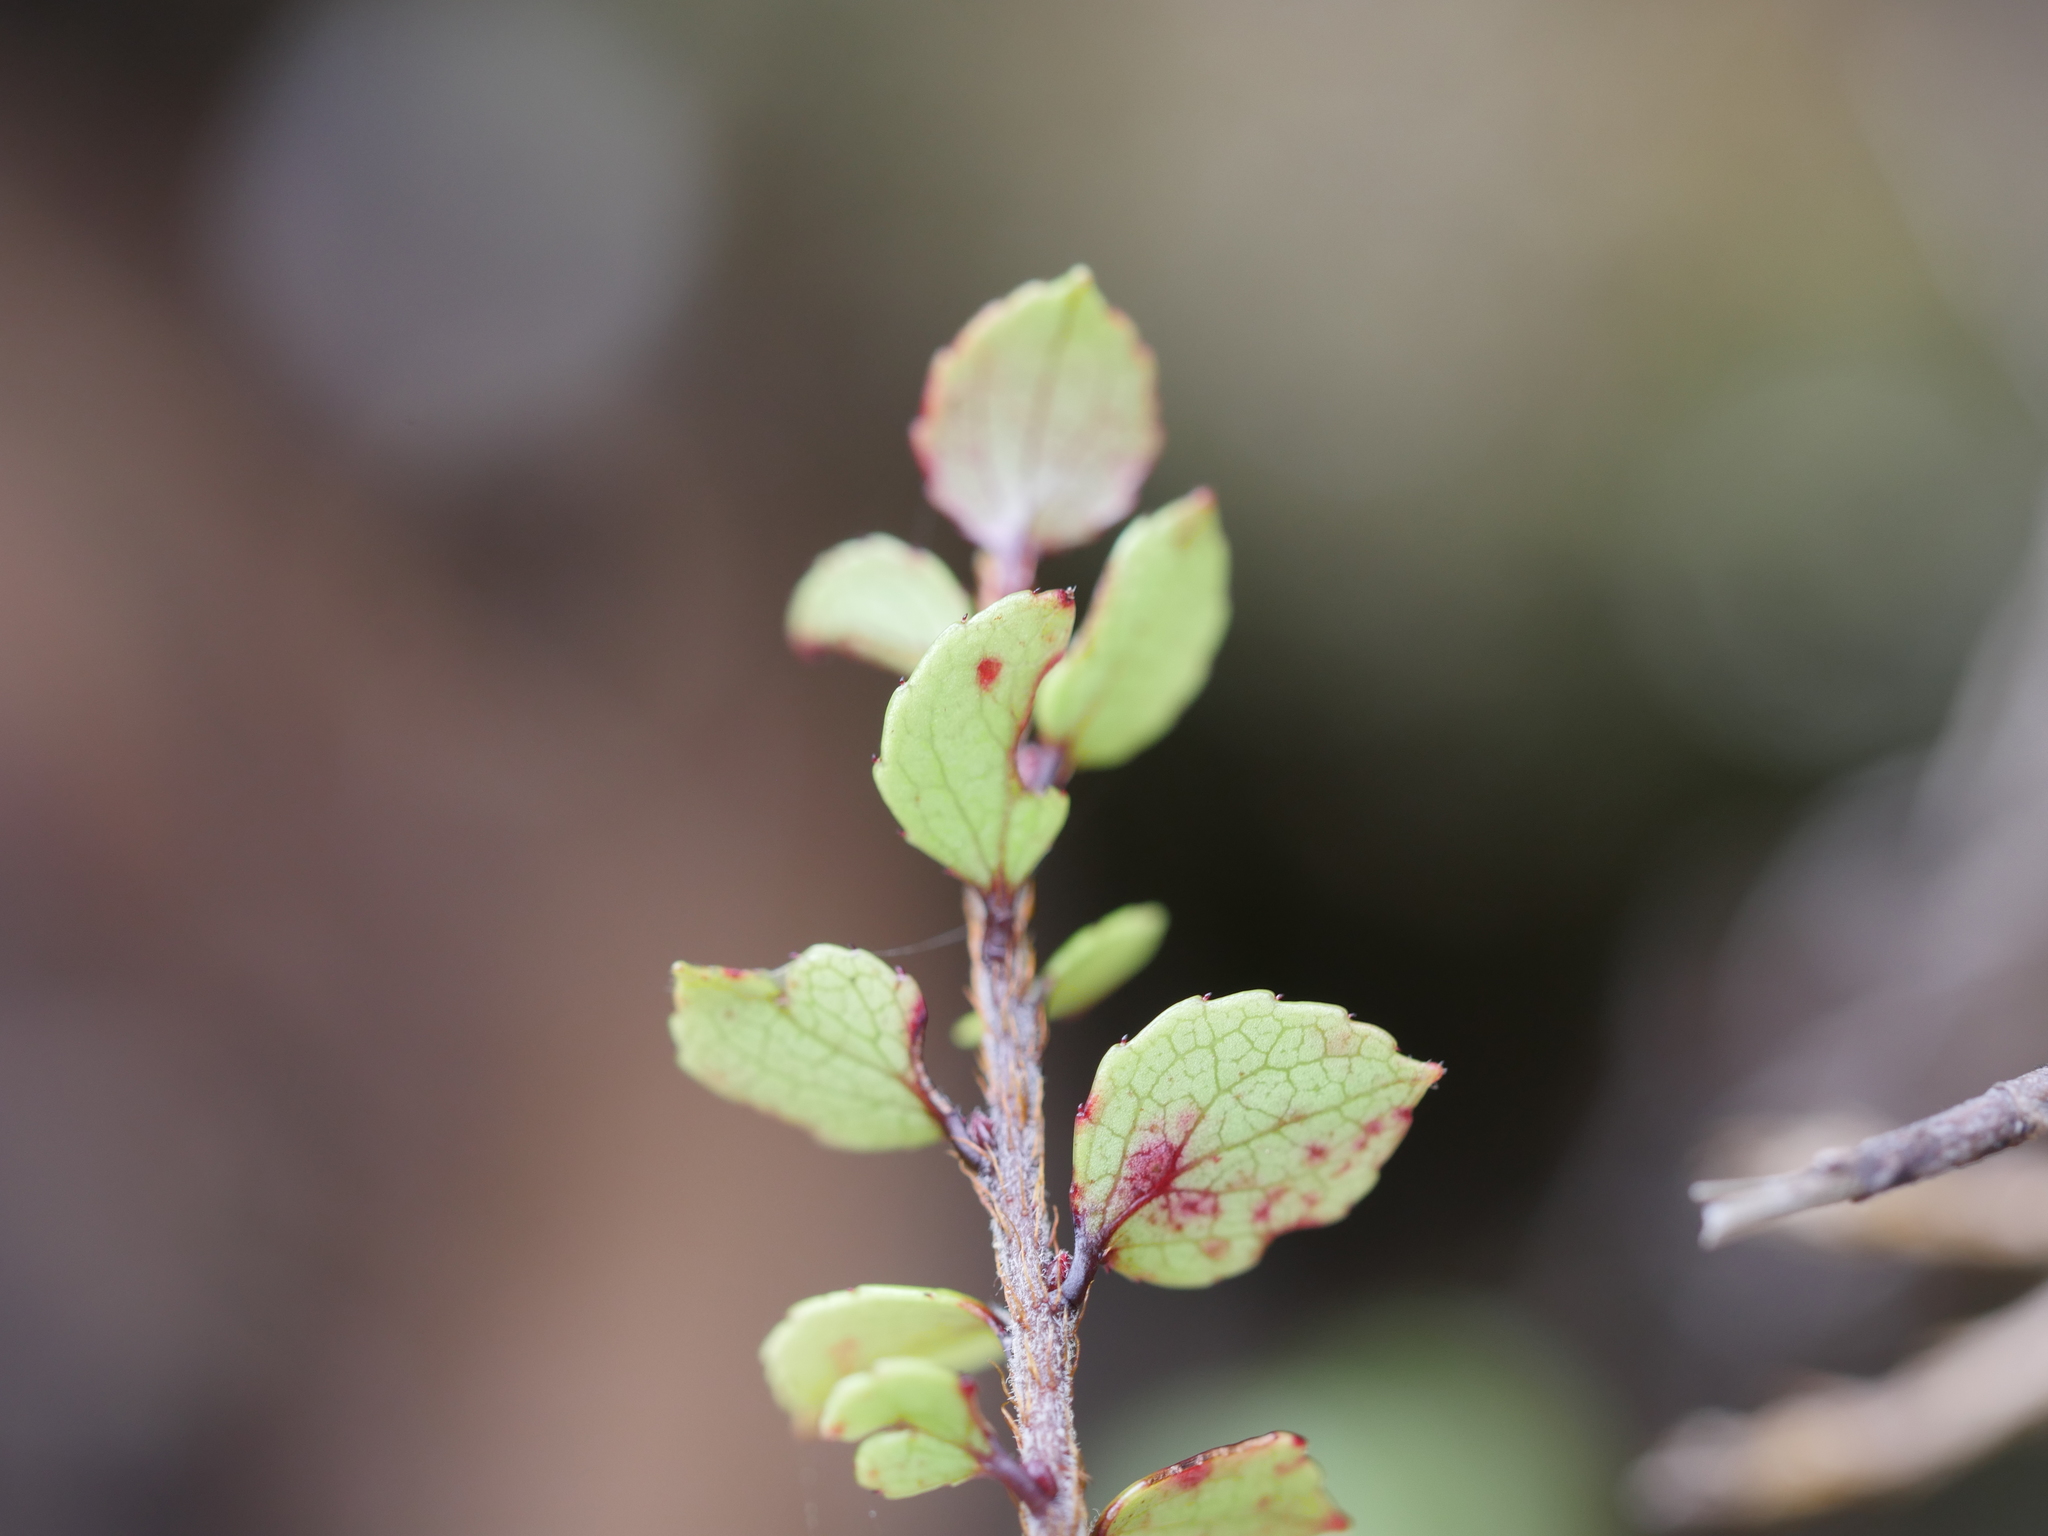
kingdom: Plantae
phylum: Tracheophyta
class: Magnoliopsida
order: Ericales
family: Ericaceae
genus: Gaultheria
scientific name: Gaultheria antipoda
